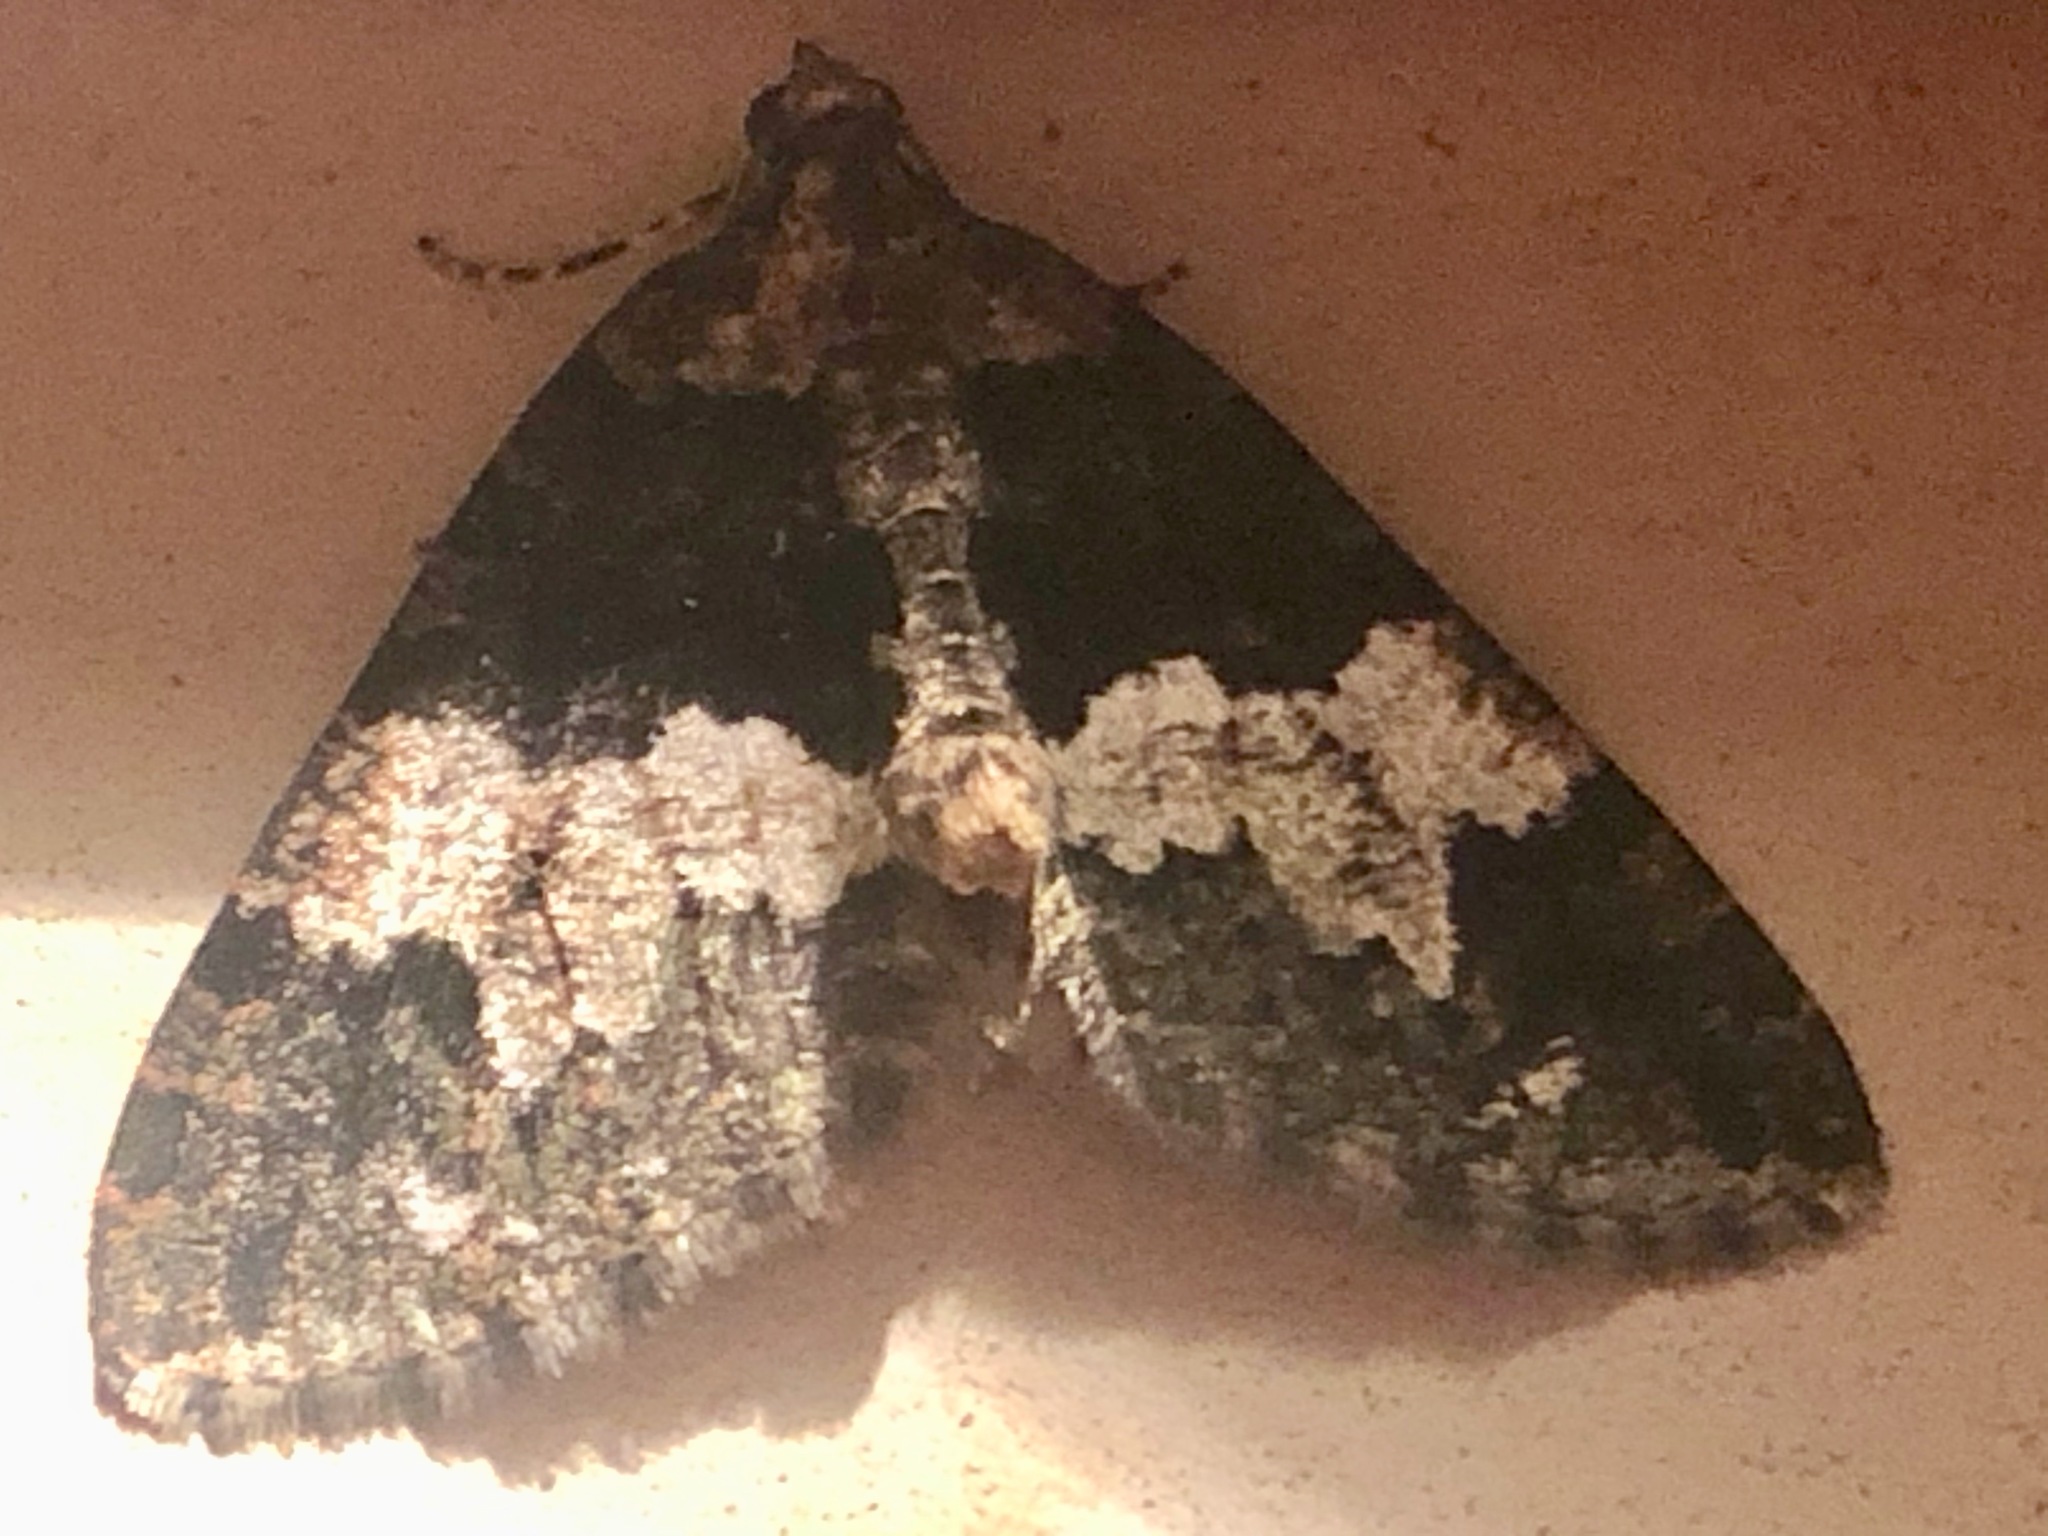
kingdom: Animalia
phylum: Arthropoda
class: Insecta
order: Lepidoptera
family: Geometridae
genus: Hydriomena
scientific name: Hydriomena albifasciata
